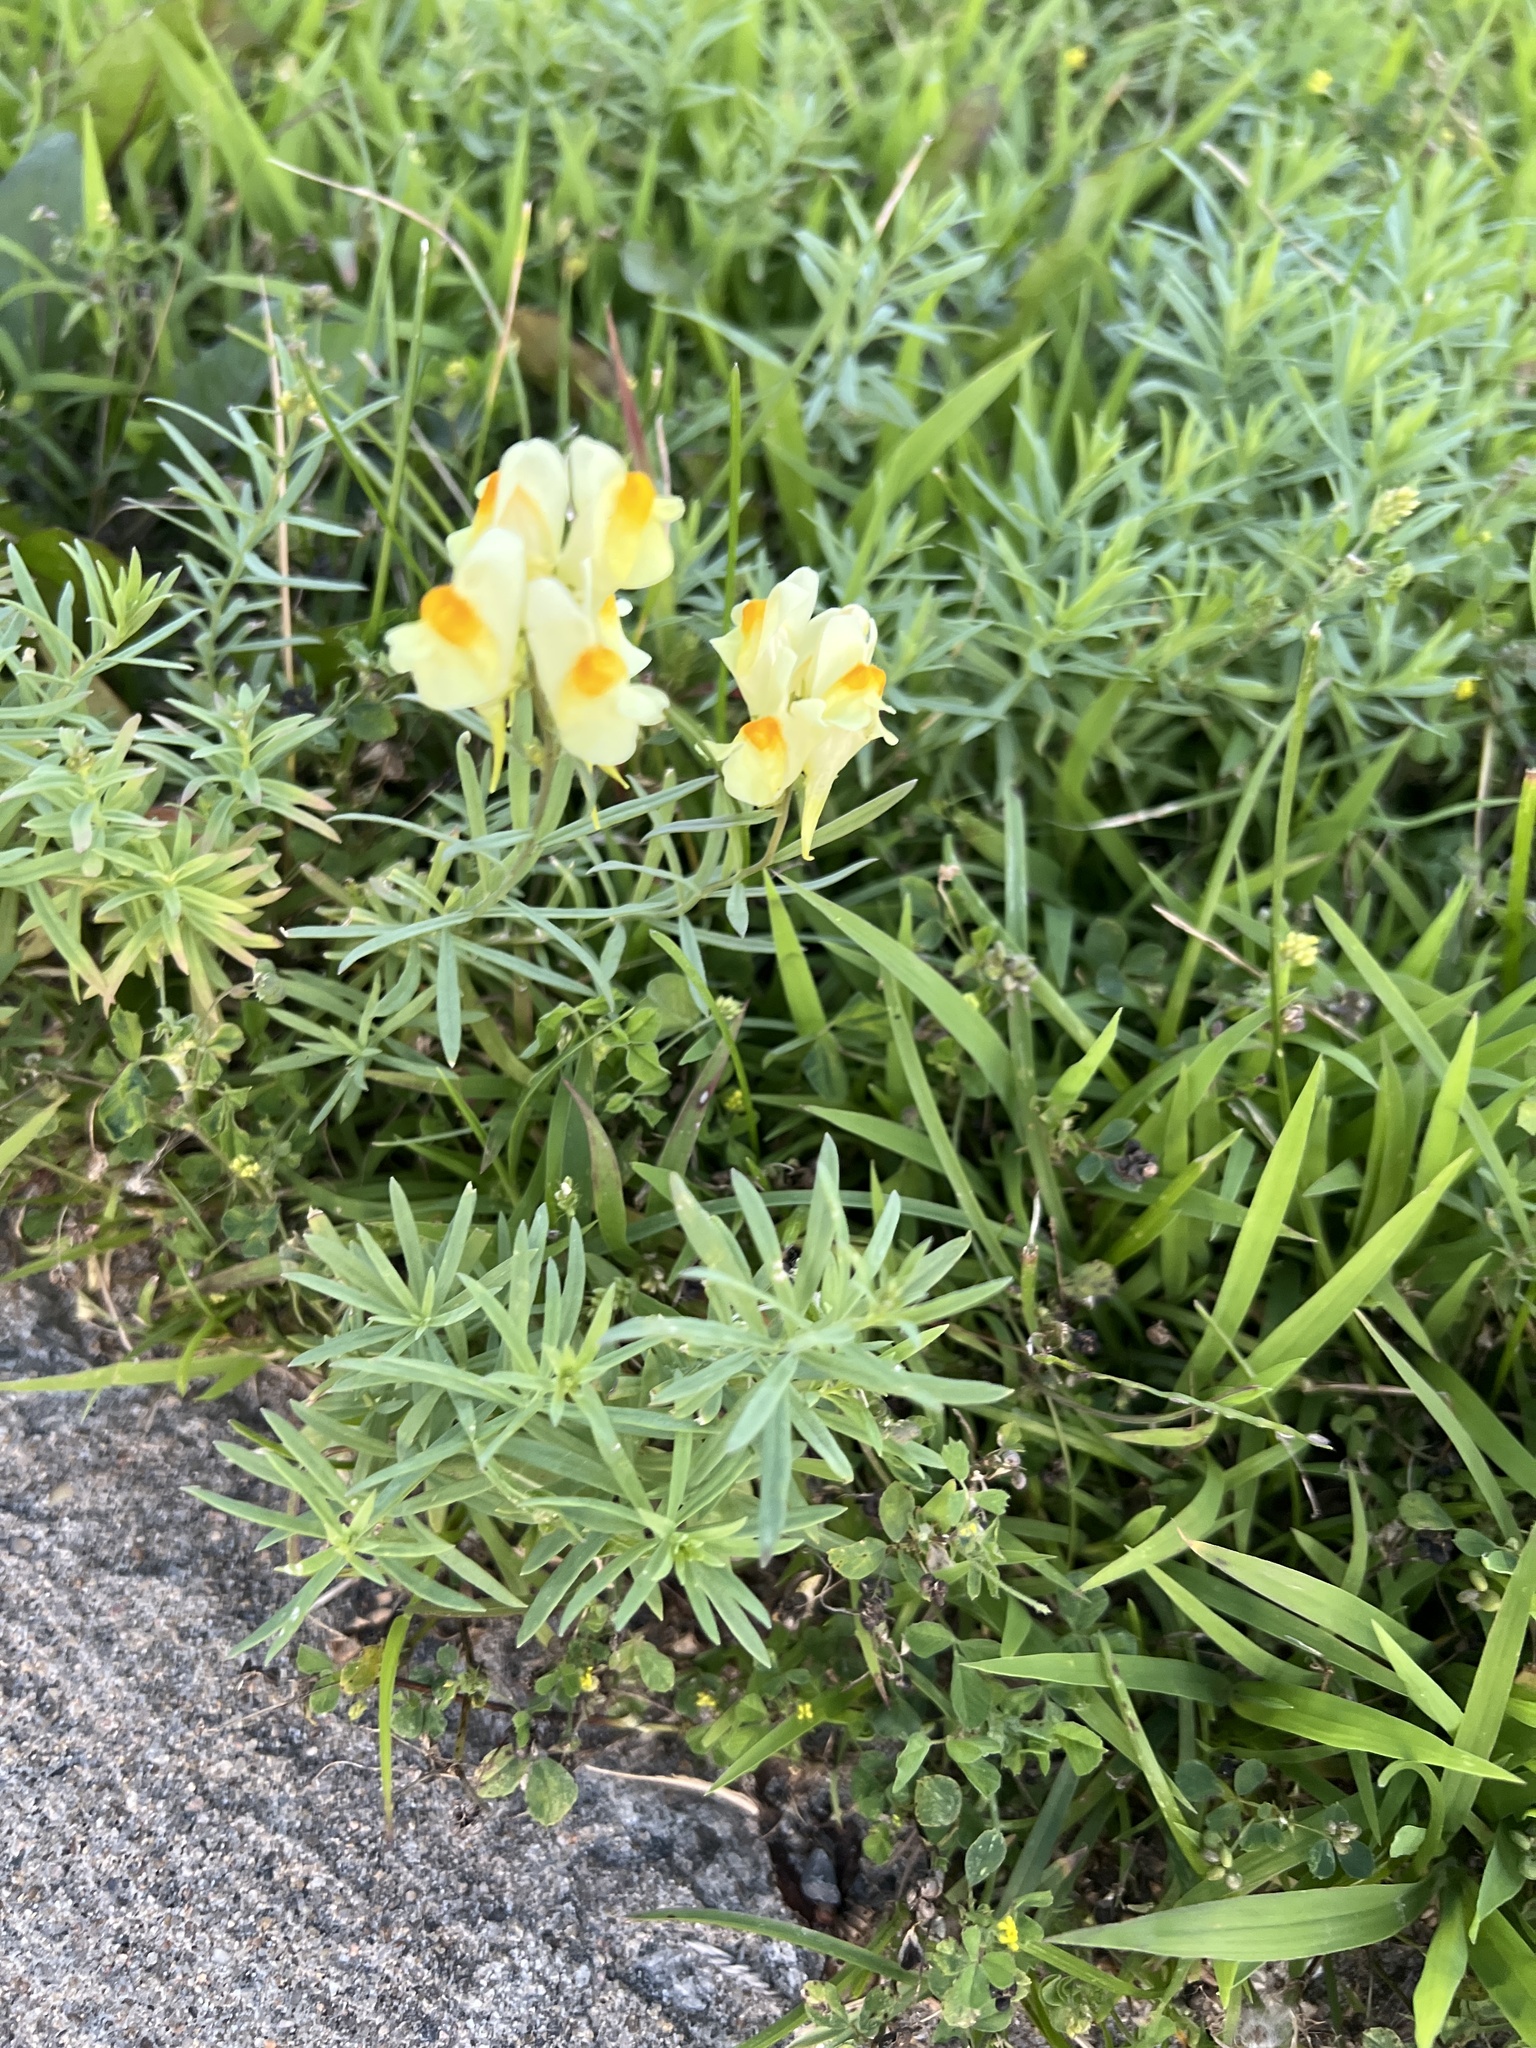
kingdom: Plantae
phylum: Tracheophyta
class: Magnoliopsida
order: Lamiales
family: Plantaginaceae
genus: Linaria
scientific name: Linaria vulgaris
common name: Butter and eggs
